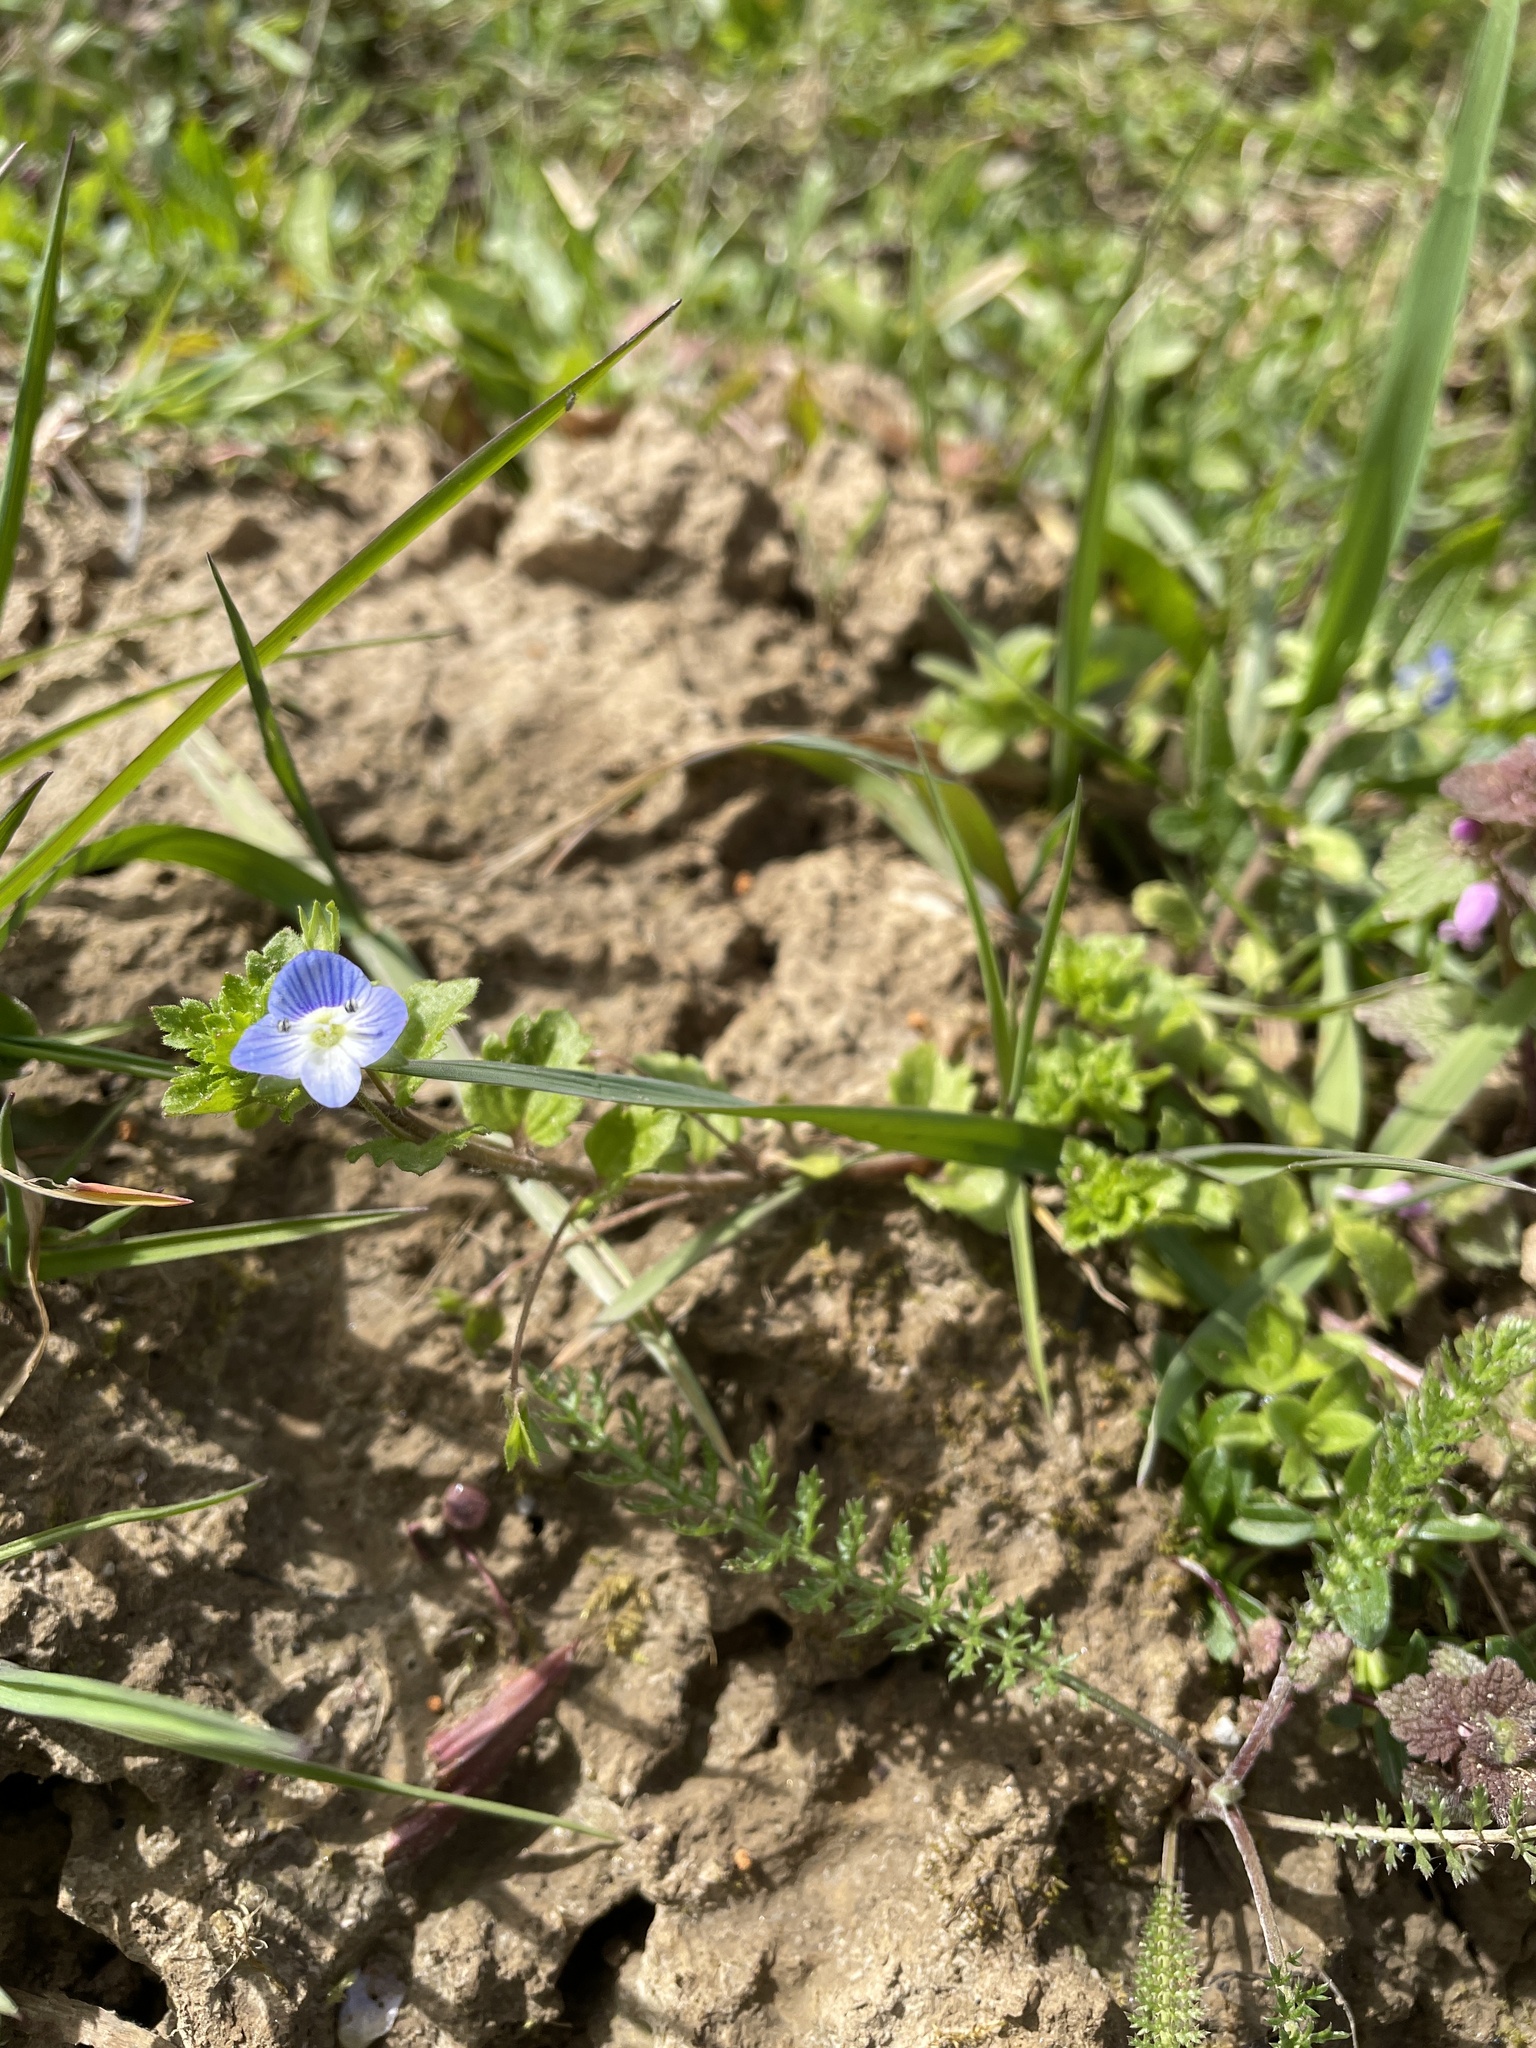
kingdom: Plantae
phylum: Tracheophyta
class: Magnoliopsida
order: Lamiales
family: Plantaginaceae
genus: Veronica
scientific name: Veronica persica
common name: Common field-speedwell
